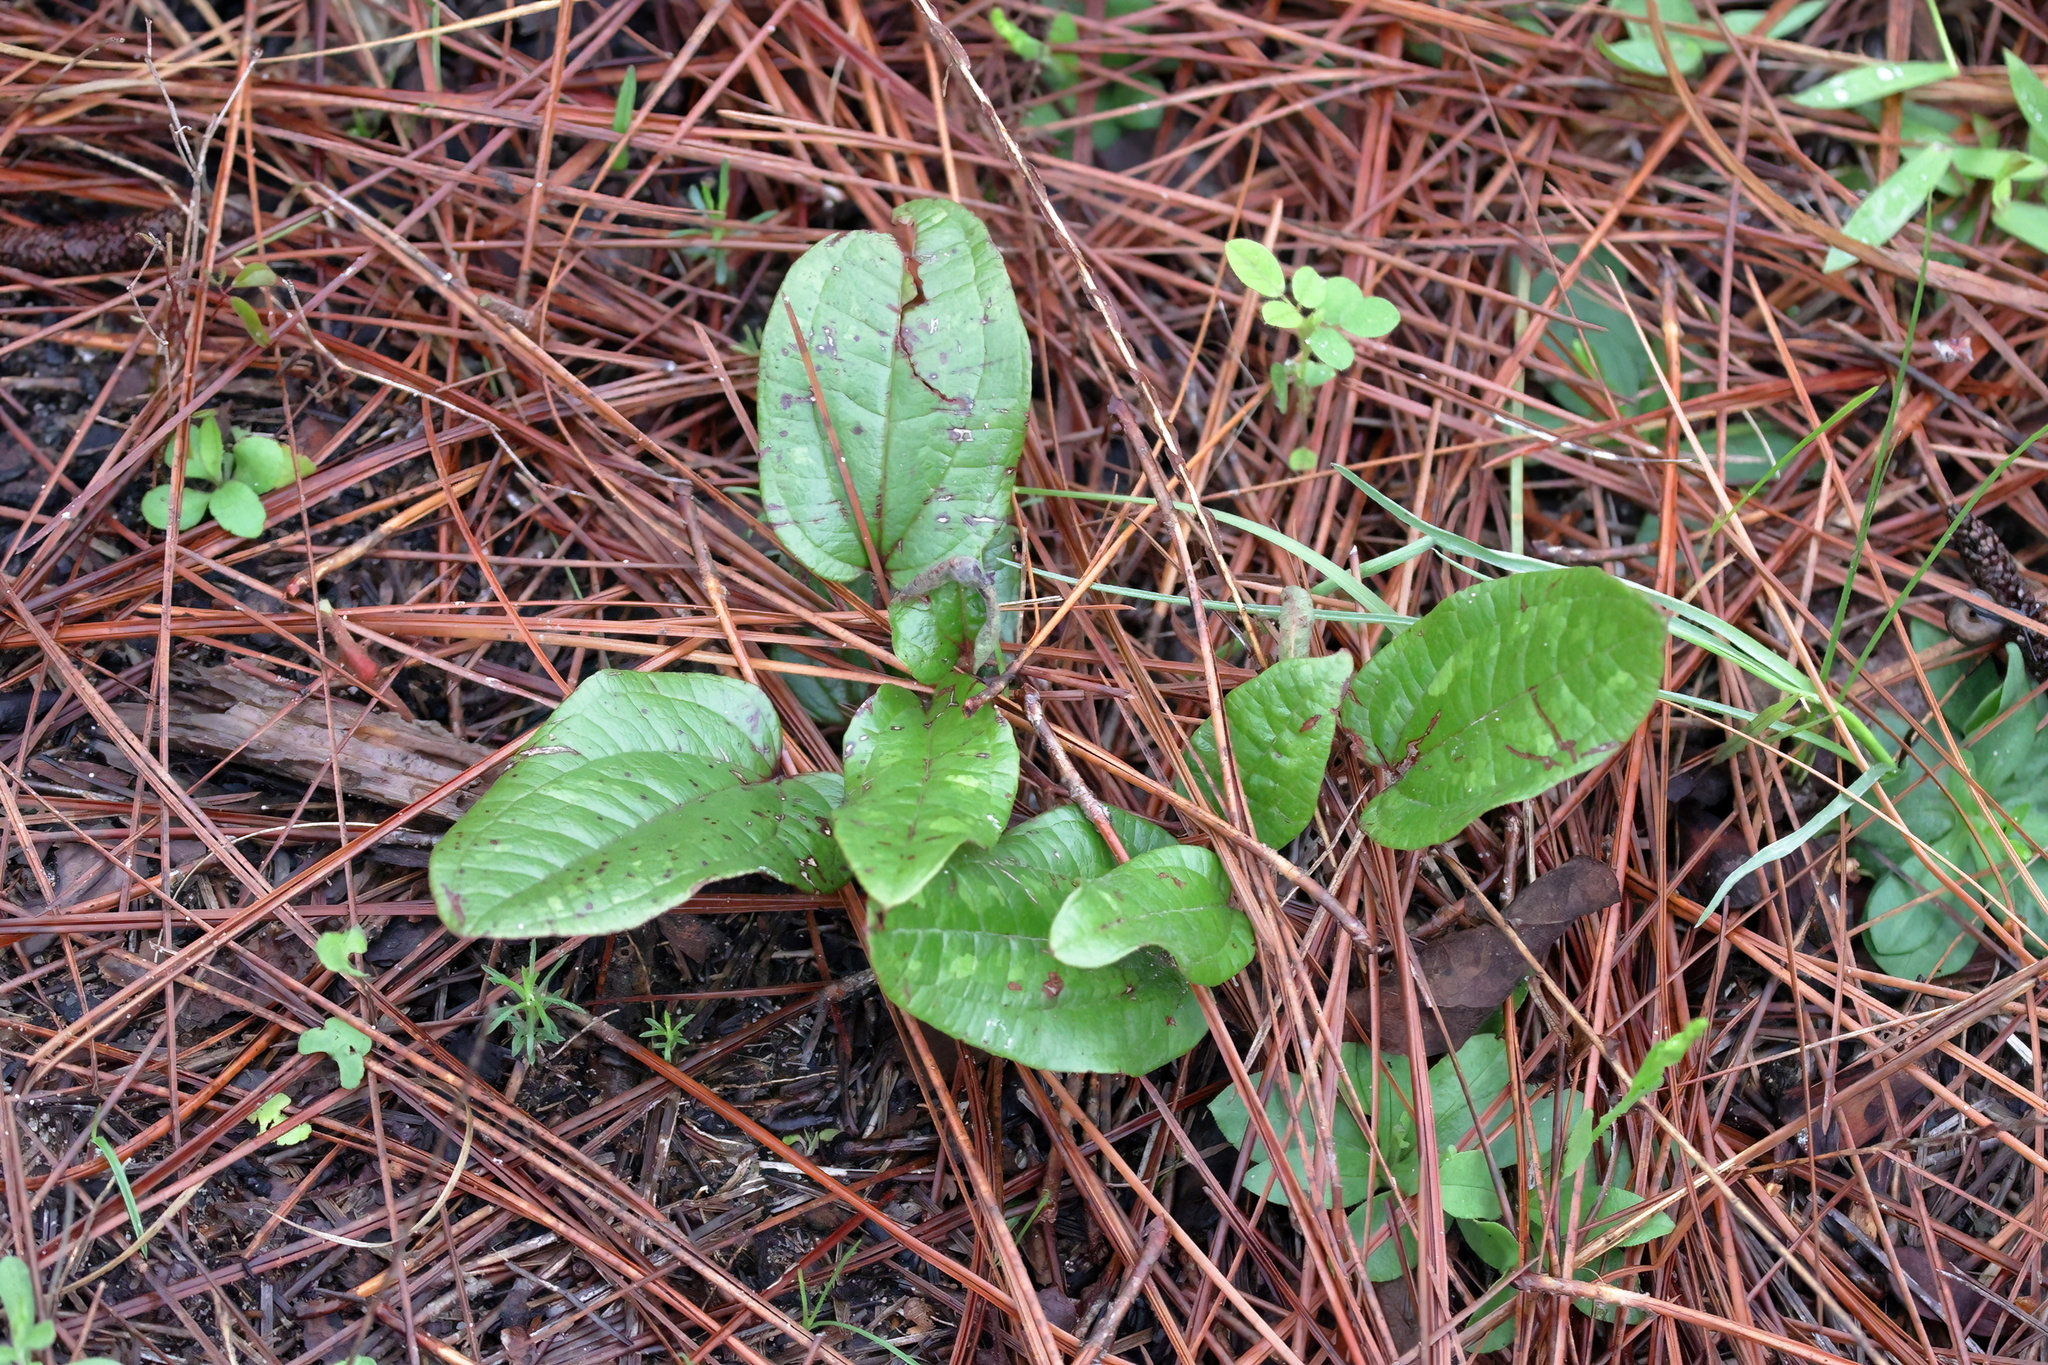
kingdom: Plantae
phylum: Tracheophyta
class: Liliopsida
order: Liliales
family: Smilacaceae
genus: Smilax
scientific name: Smilax pumila
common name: Sarsaparilla-vine
